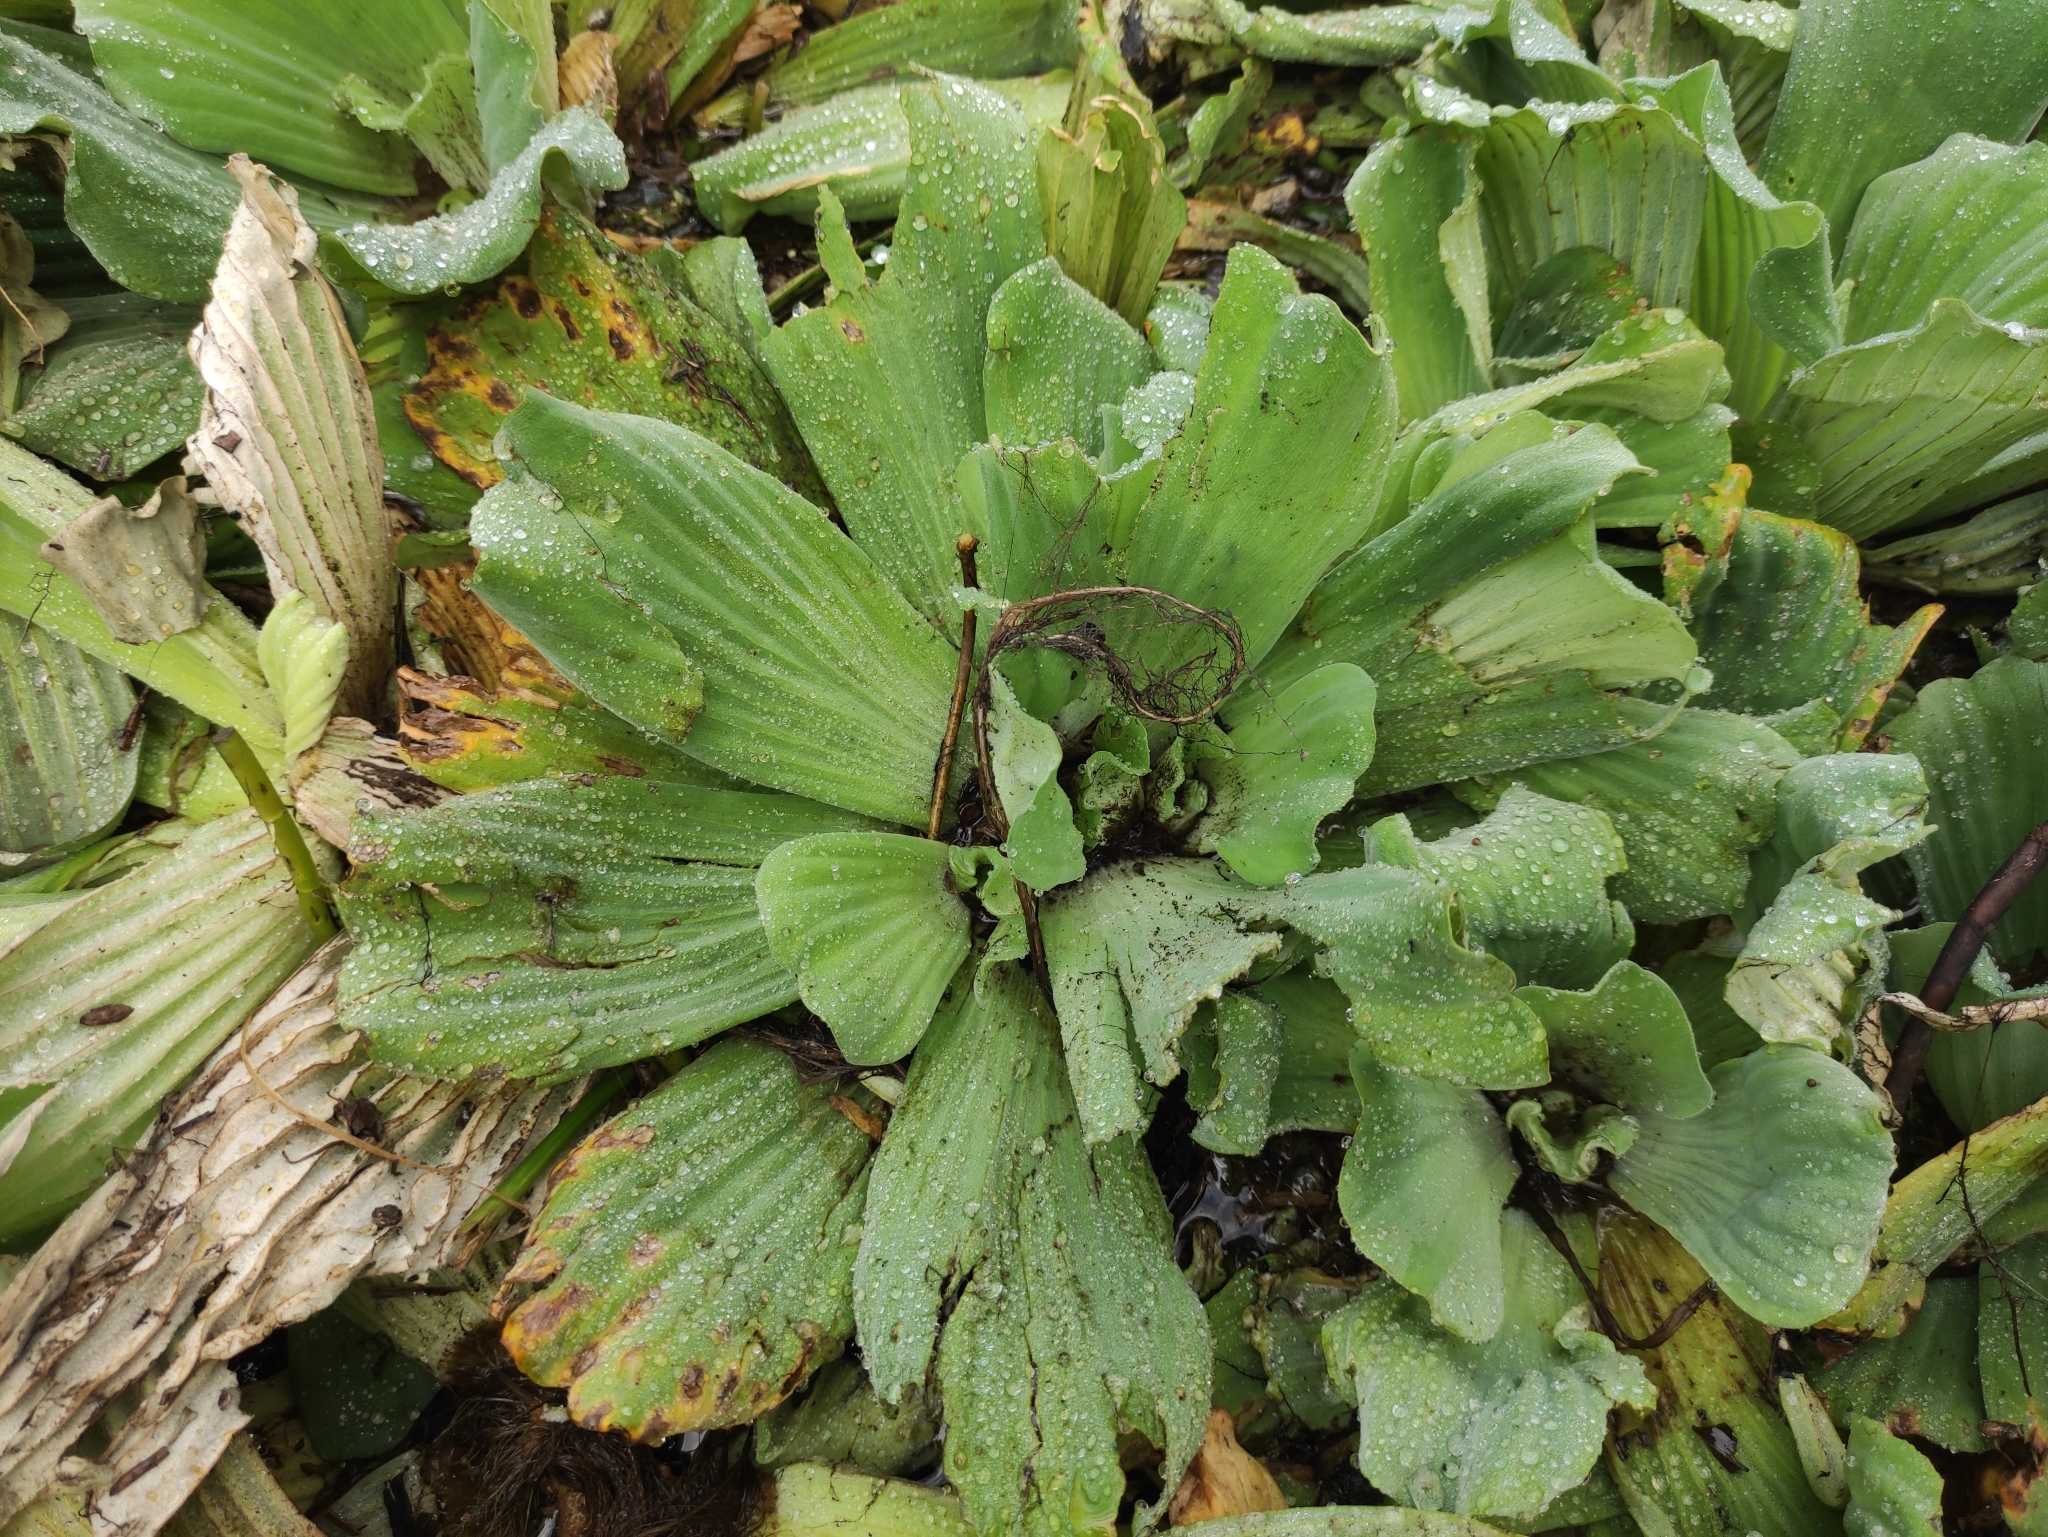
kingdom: Plantae
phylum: Tracheophyta
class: Liliopsida
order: Alismatales
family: Araceae
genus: Pistia
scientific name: Pistia stratiotes
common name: Water lettuce
